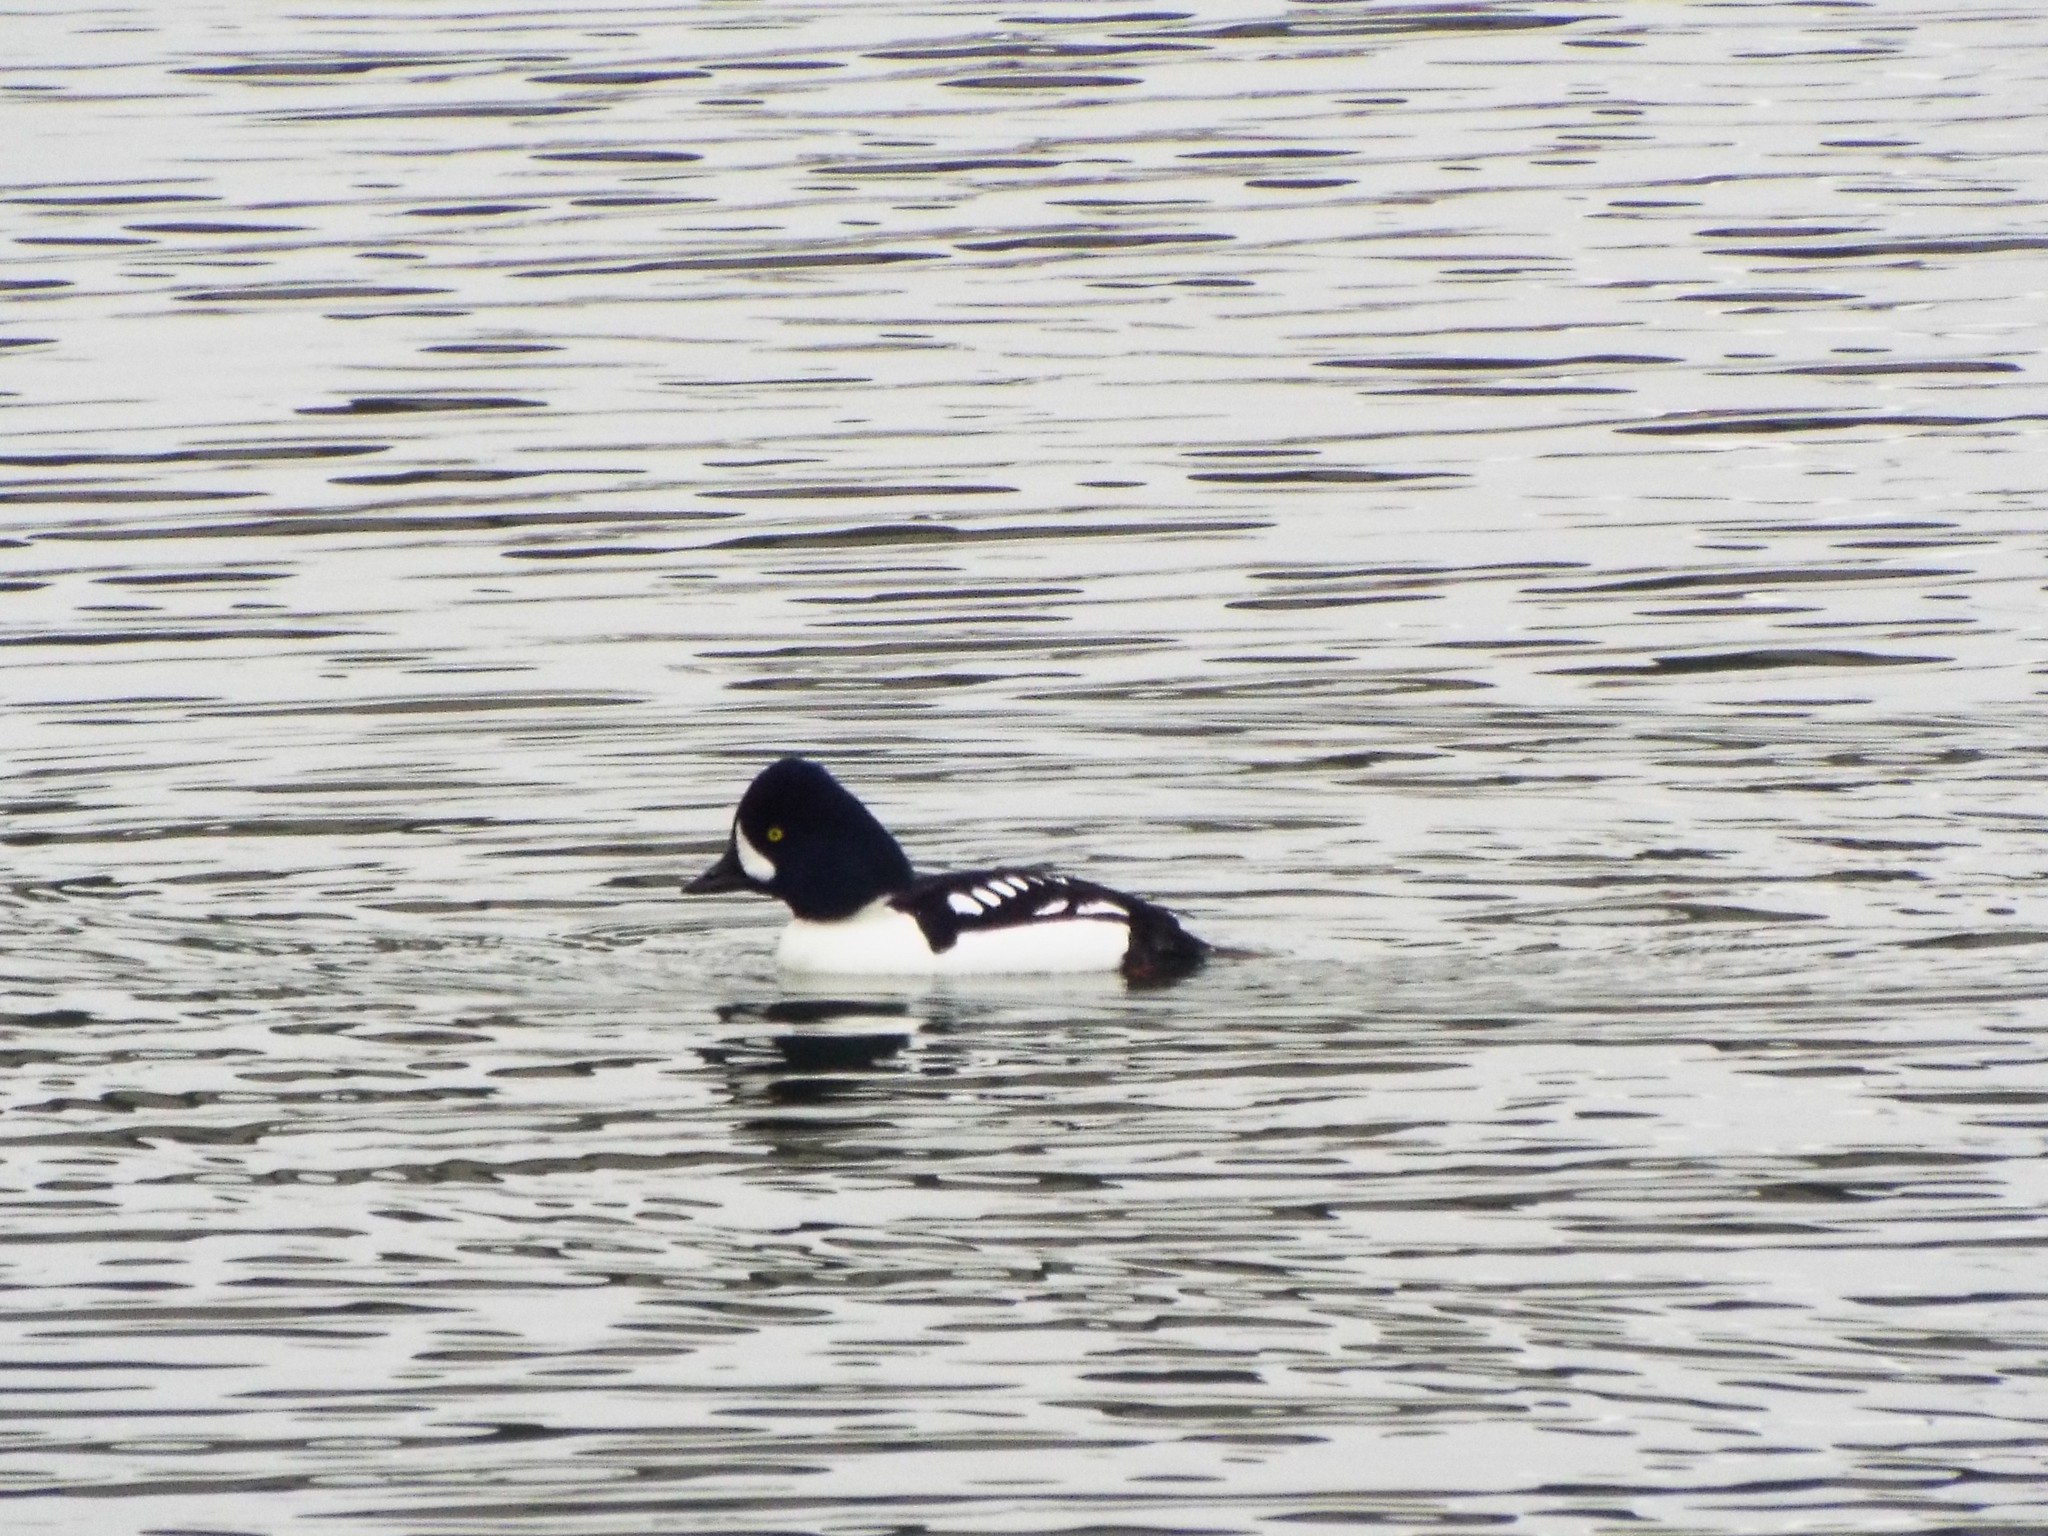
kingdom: Animalia
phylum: Chordata
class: Aves
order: Anseriformes
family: Anatidae
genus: Bucephala
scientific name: Bucephala islandica
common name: Barrow's goldeneye
